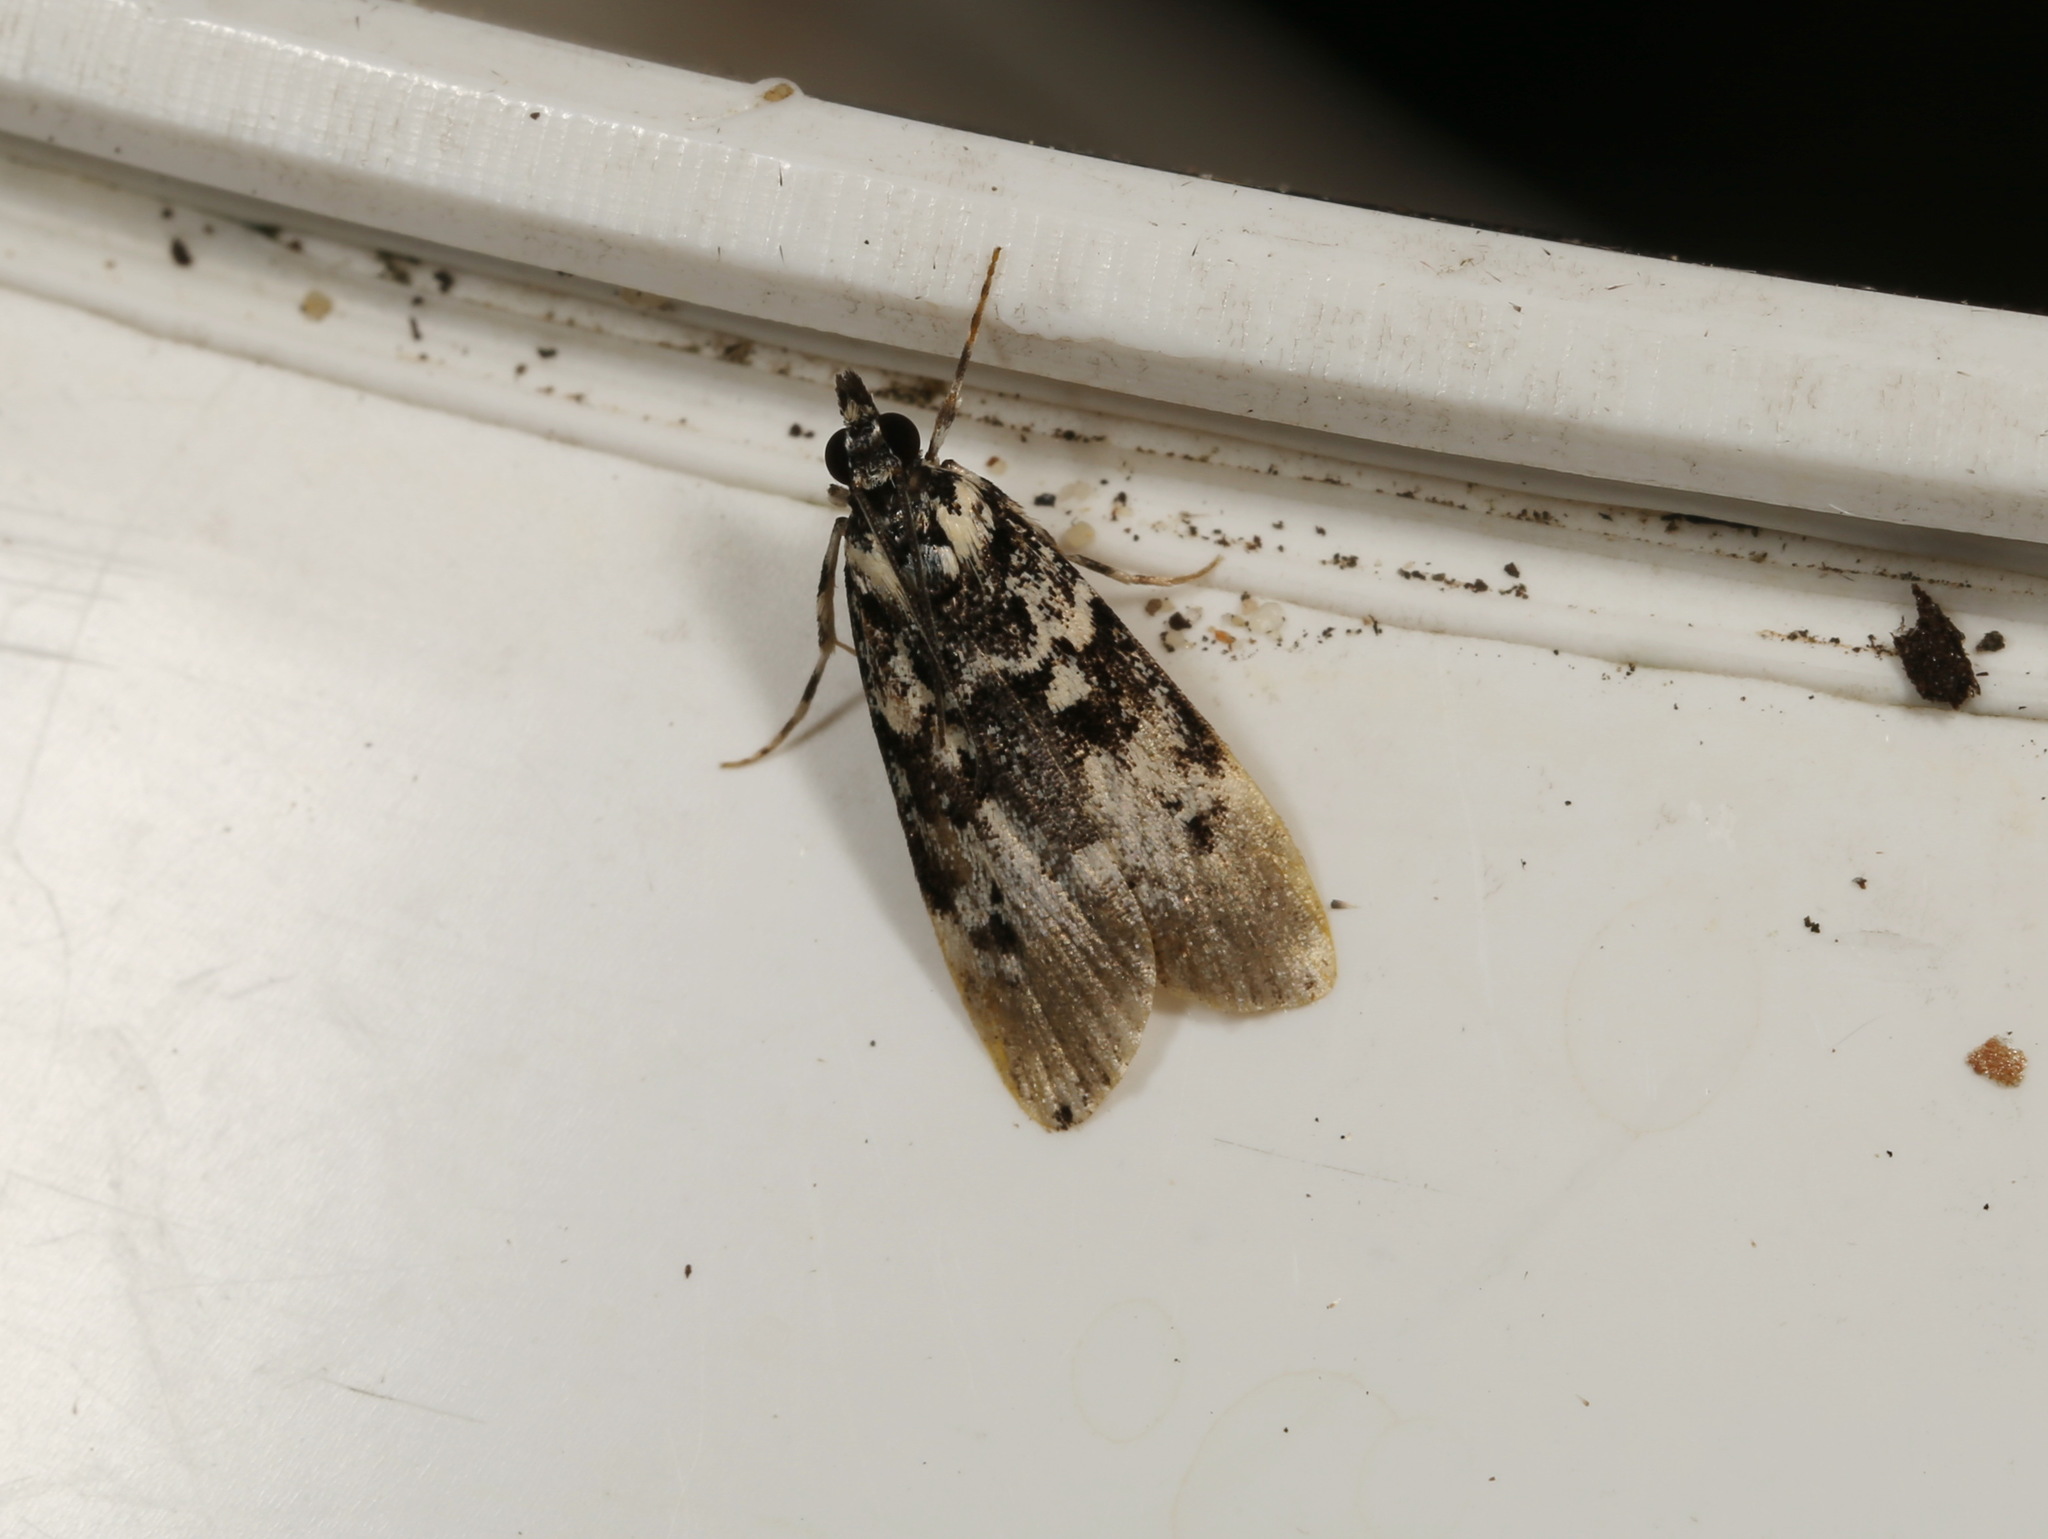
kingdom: Animalia
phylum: Arthropoda
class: Insecta
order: Lepidoptera
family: Crambidae
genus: Scoparia
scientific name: Scoparia exhibitalis
